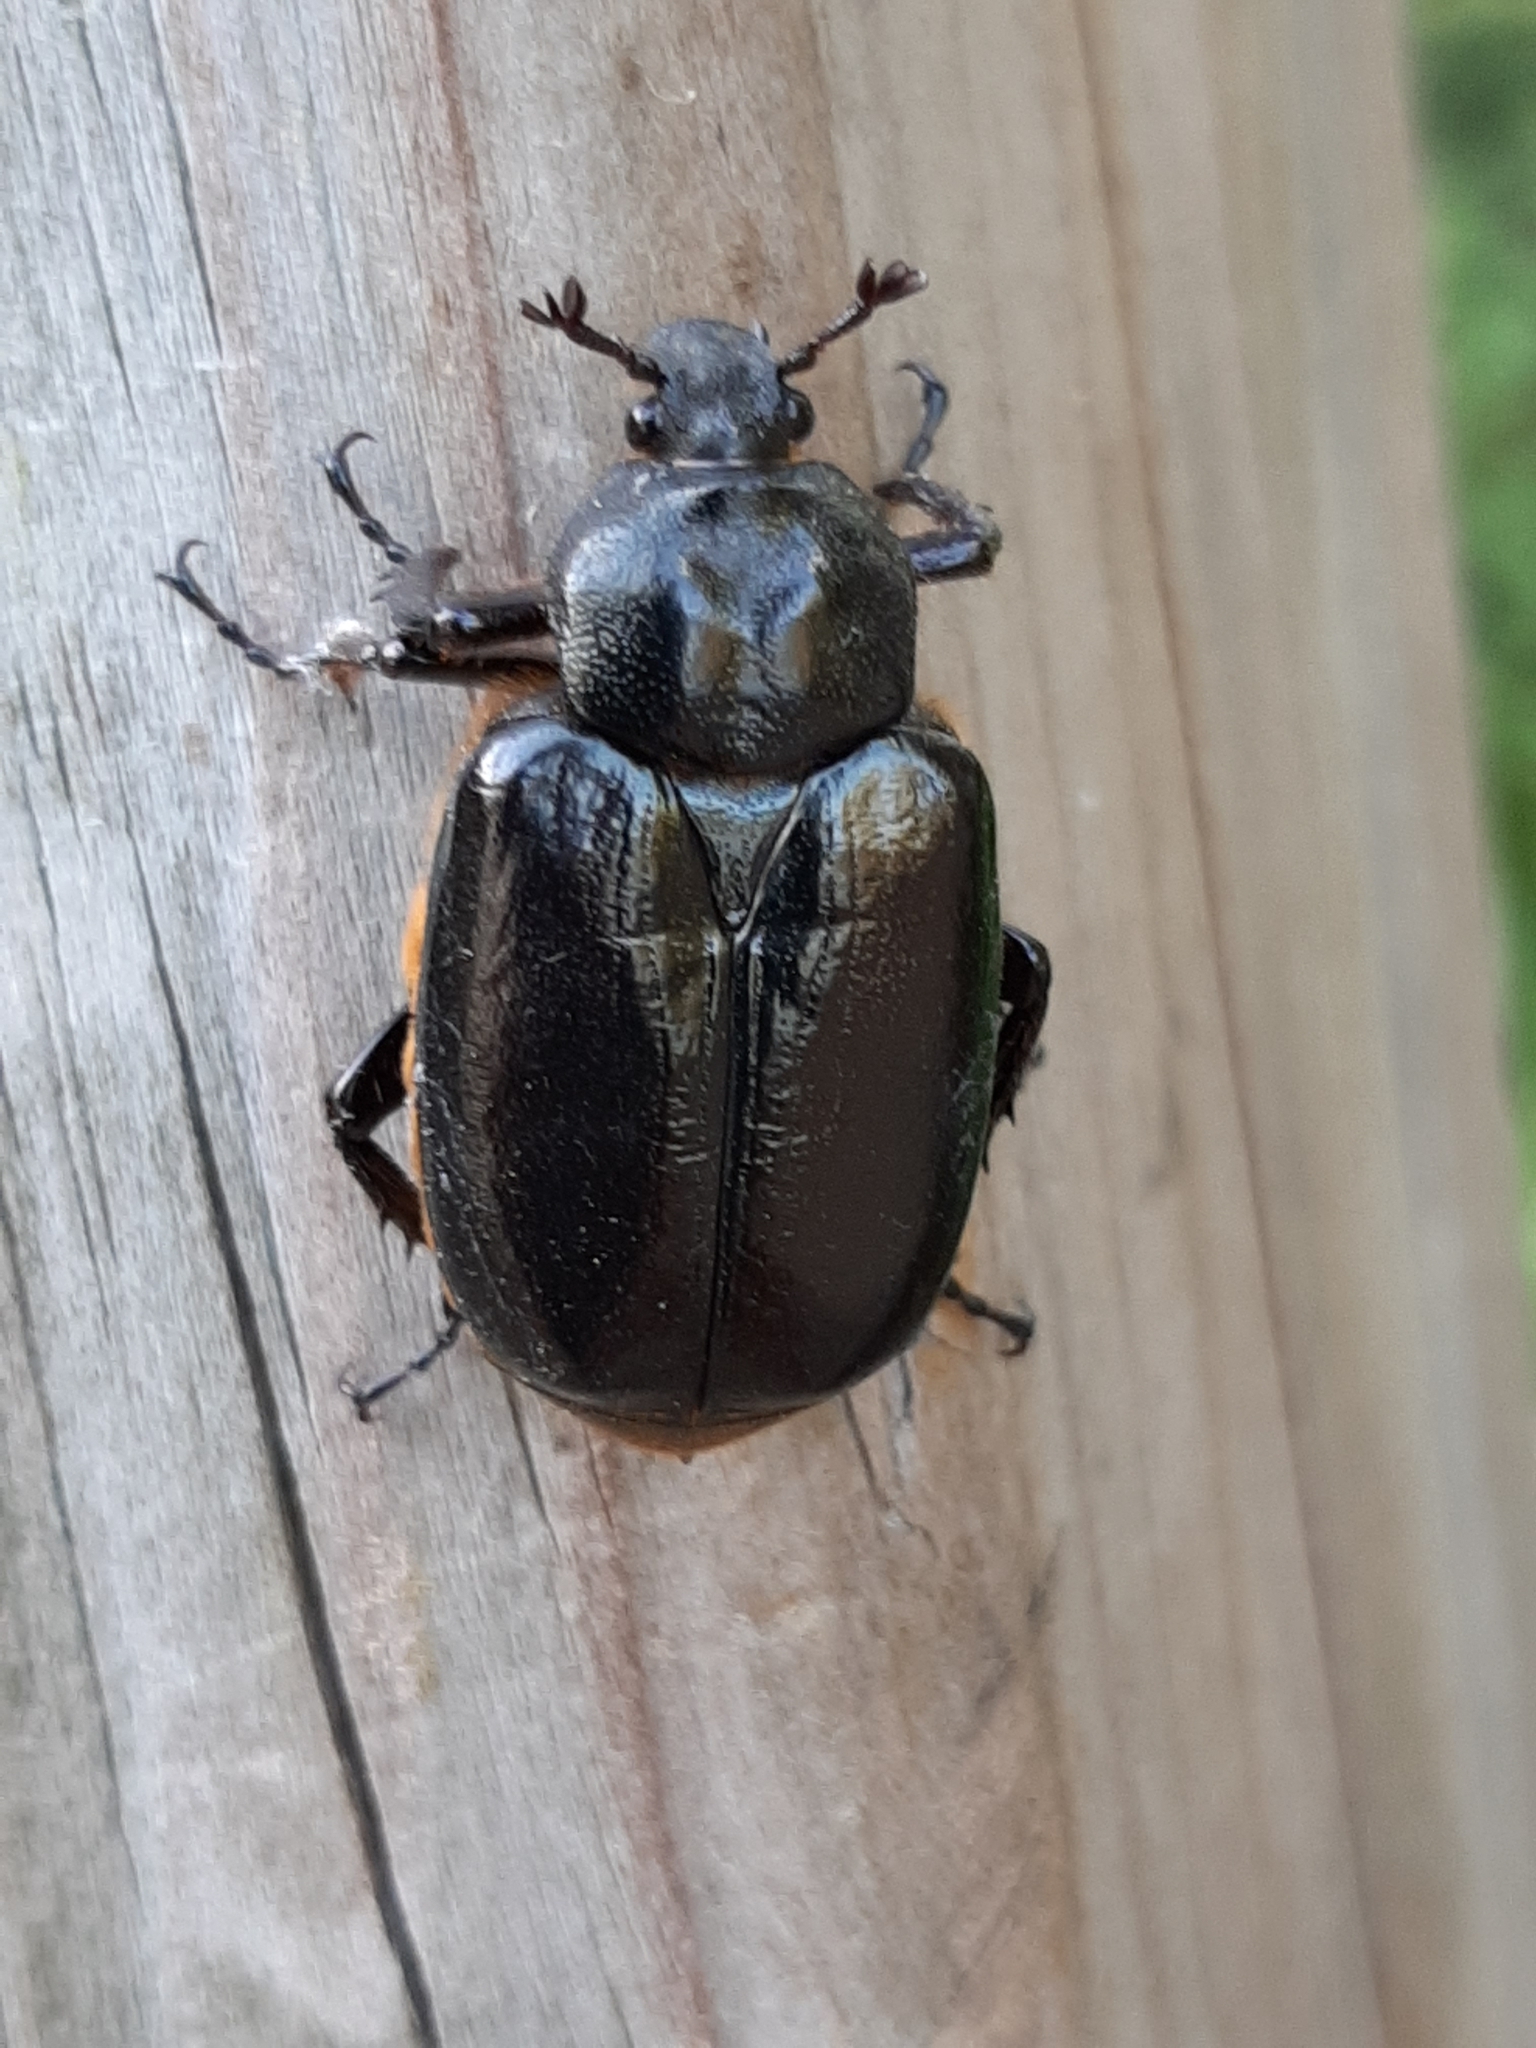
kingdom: Animalia
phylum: Arthropoda
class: Insecta
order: Coleoptera
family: Scarabaeidae
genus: Osmoderma
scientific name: Osmoderma eremicola
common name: Hermit flower beetle
